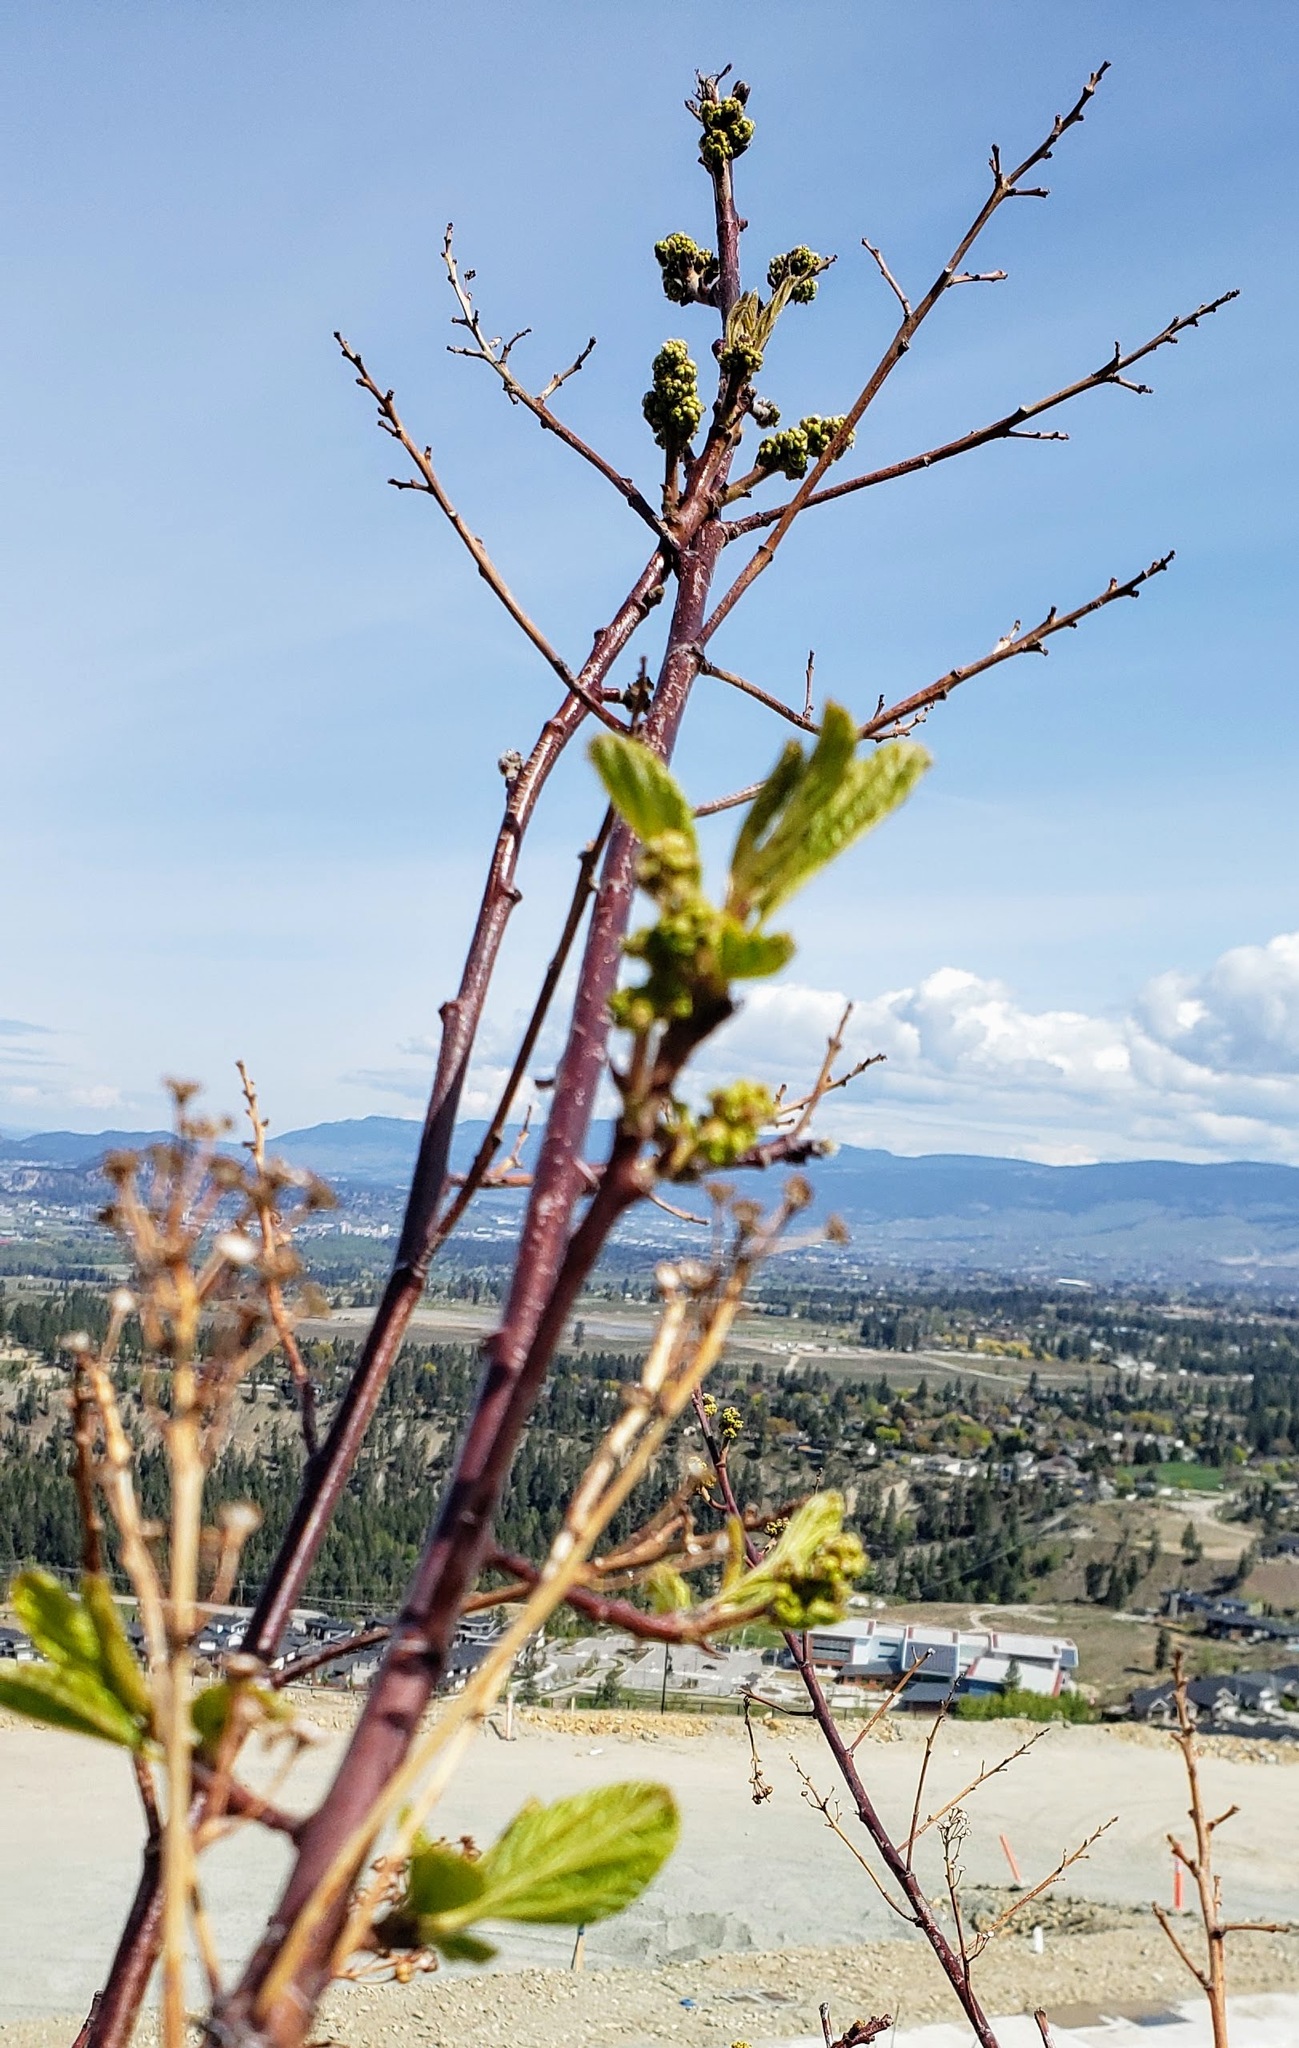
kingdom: Plantae
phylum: Tracheophyta
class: Magnoliopsida
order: Rosales
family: Rhamnaceae
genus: Ceanothus
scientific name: Ceanothus sanguineus
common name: Teatree
